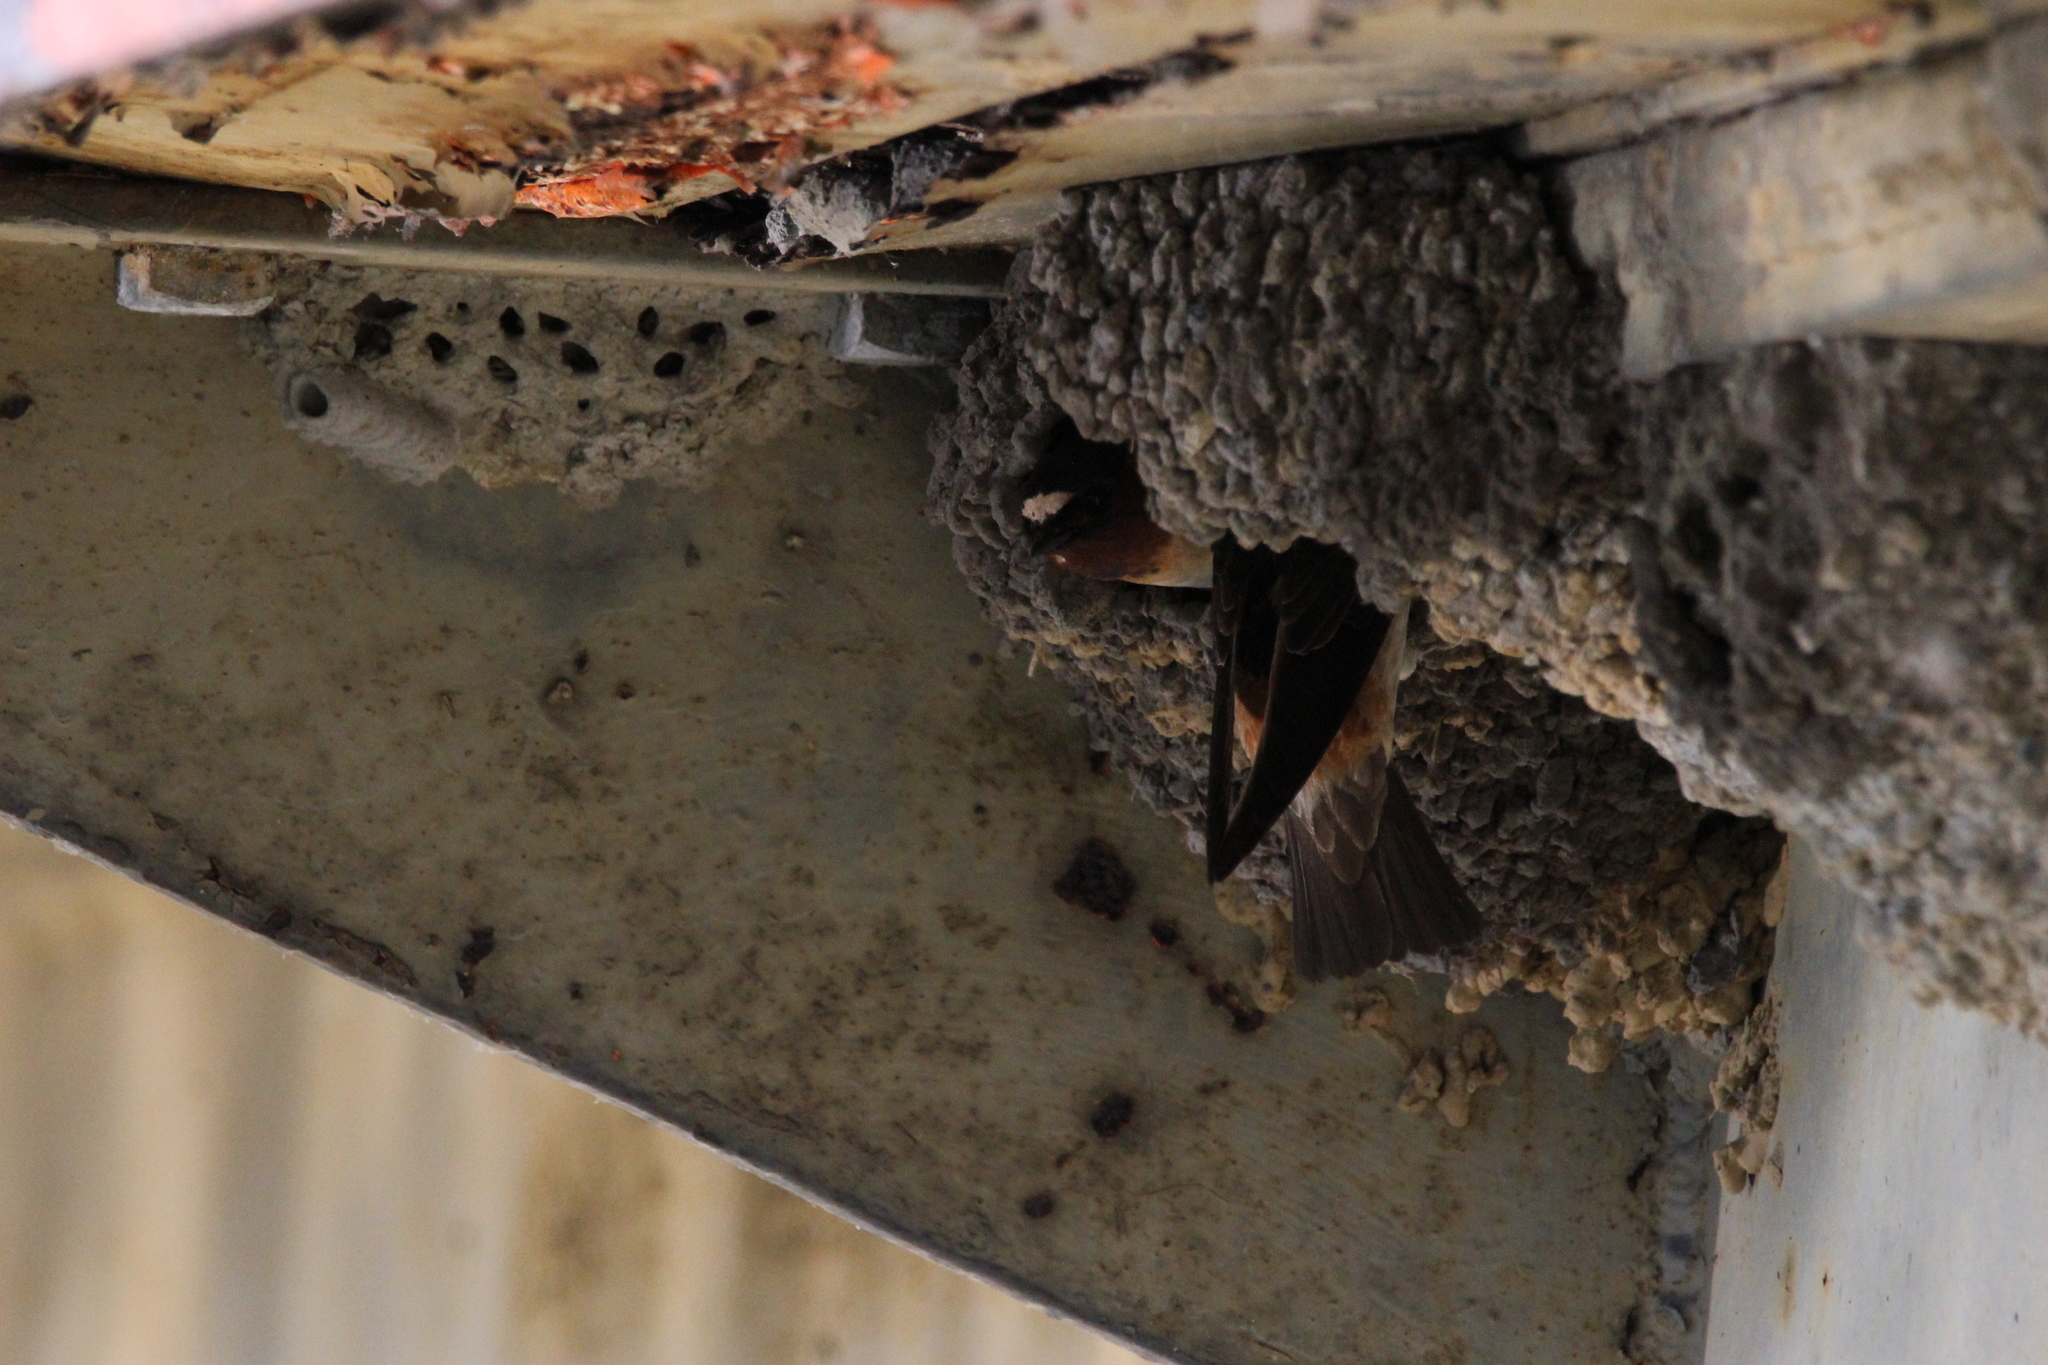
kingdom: Animalia
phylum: Chordata
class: Aves
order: Passeriformes
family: Hirundinidae
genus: Petrochelidon
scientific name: Petrochelidon pyrrhonota
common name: American cliff swallow
